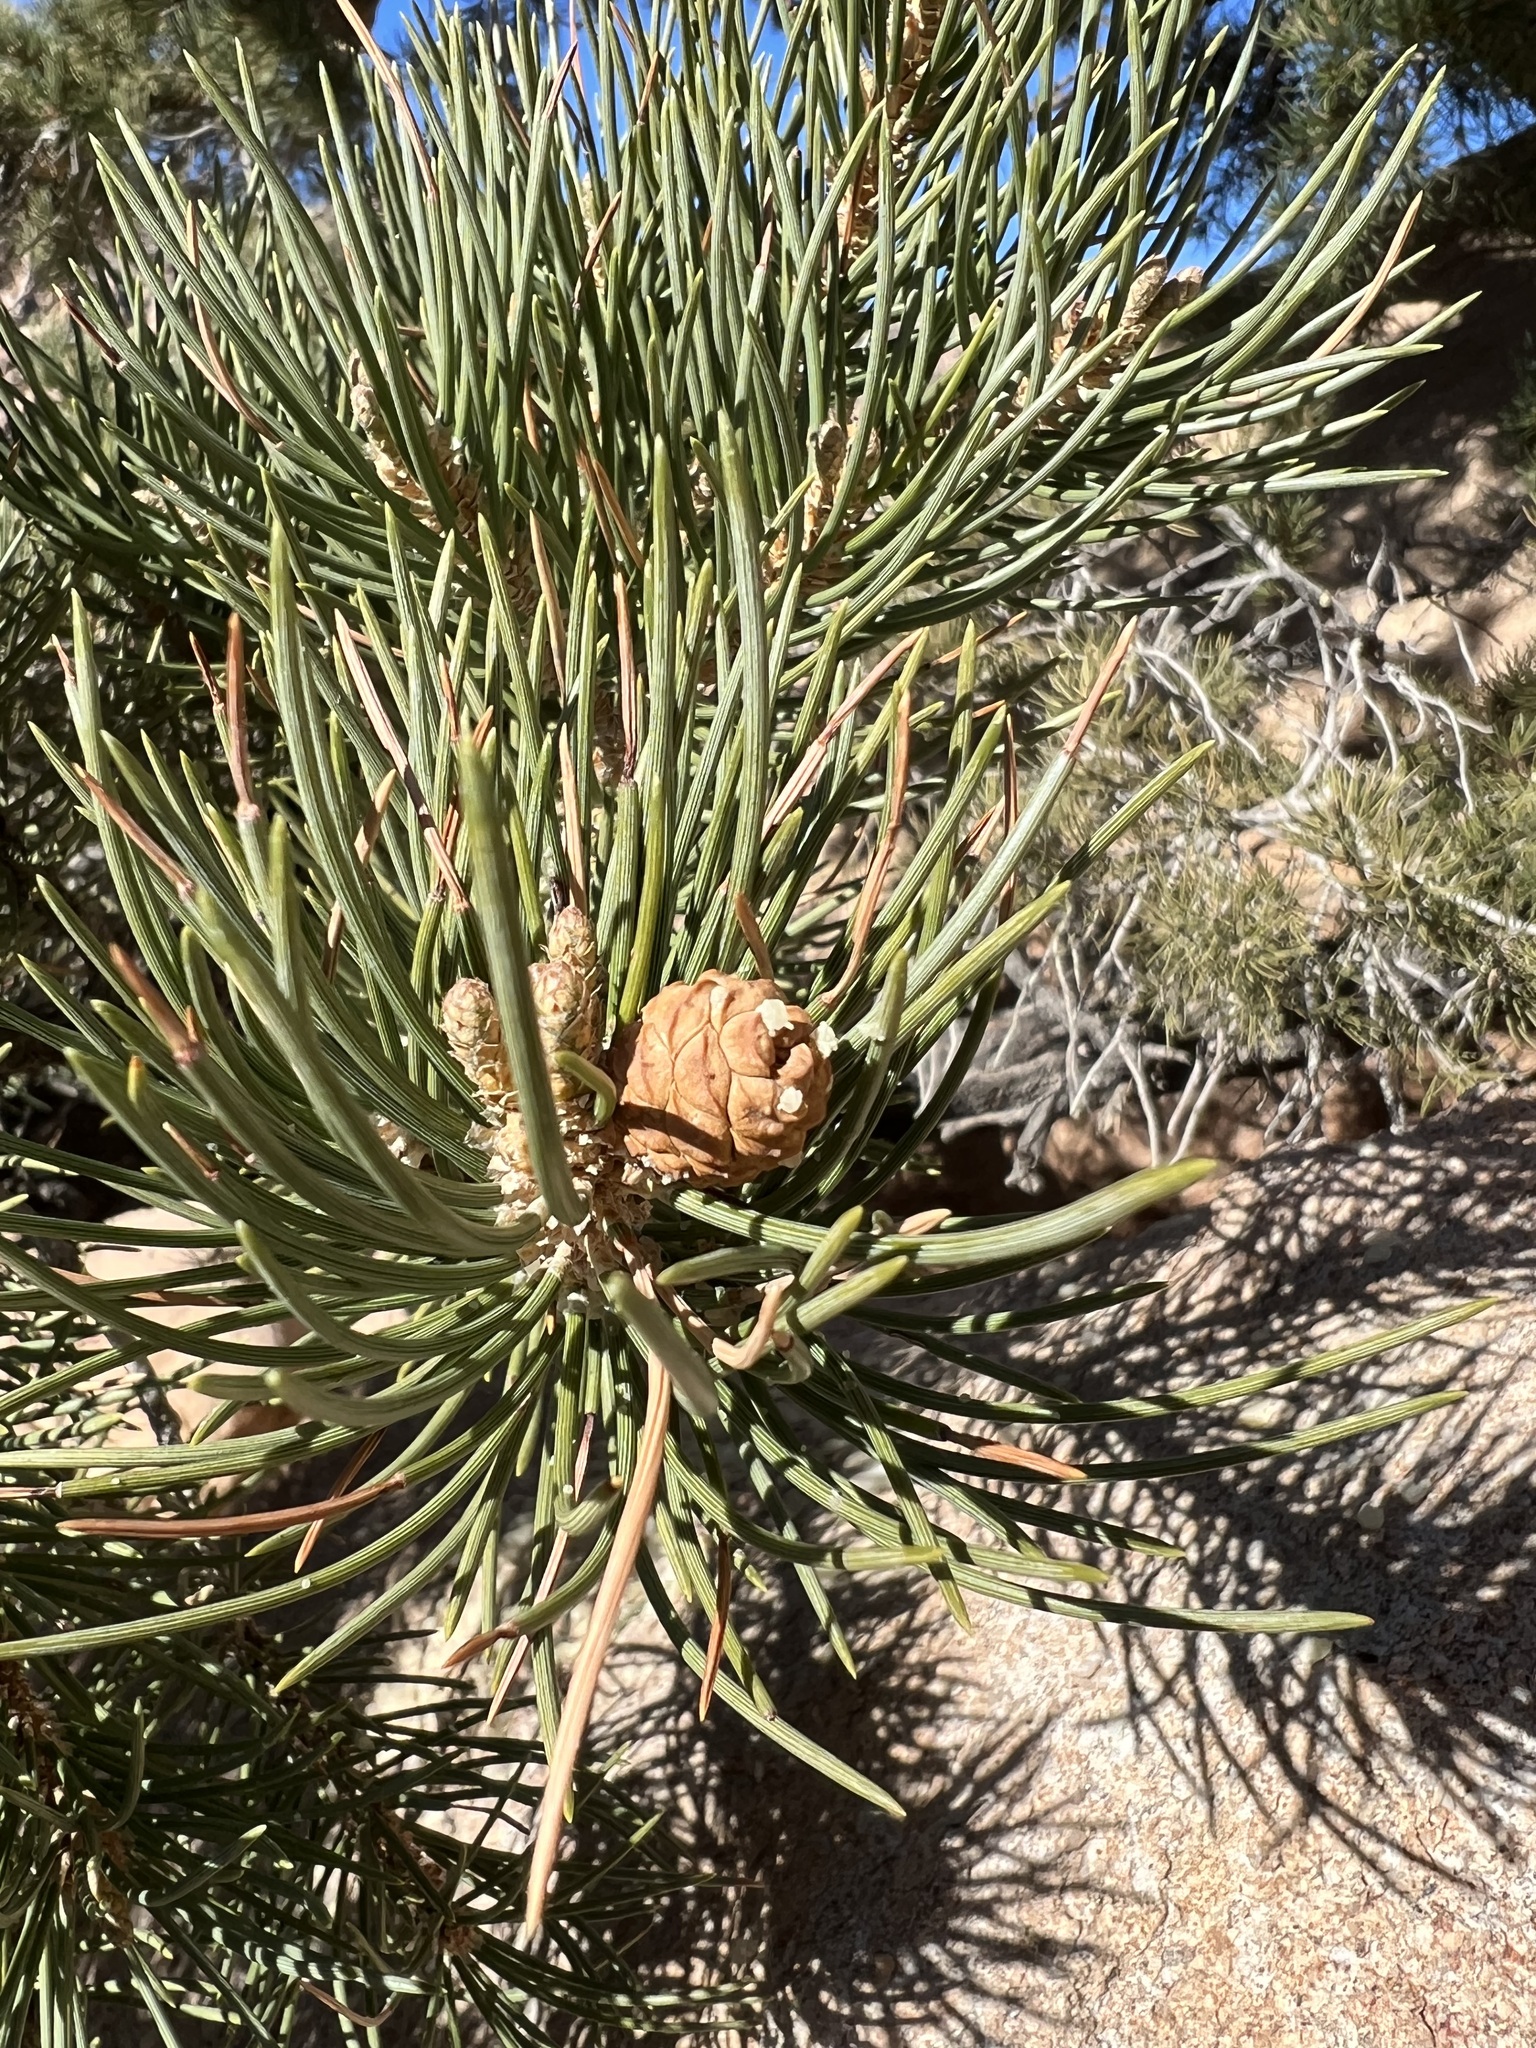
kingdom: Plantae
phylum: Tracheophyta
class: Pinopsida
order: Pinales
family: Pinaceae
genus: Pinus
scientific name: Pinus monophylla
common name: One-leaved nut pine
